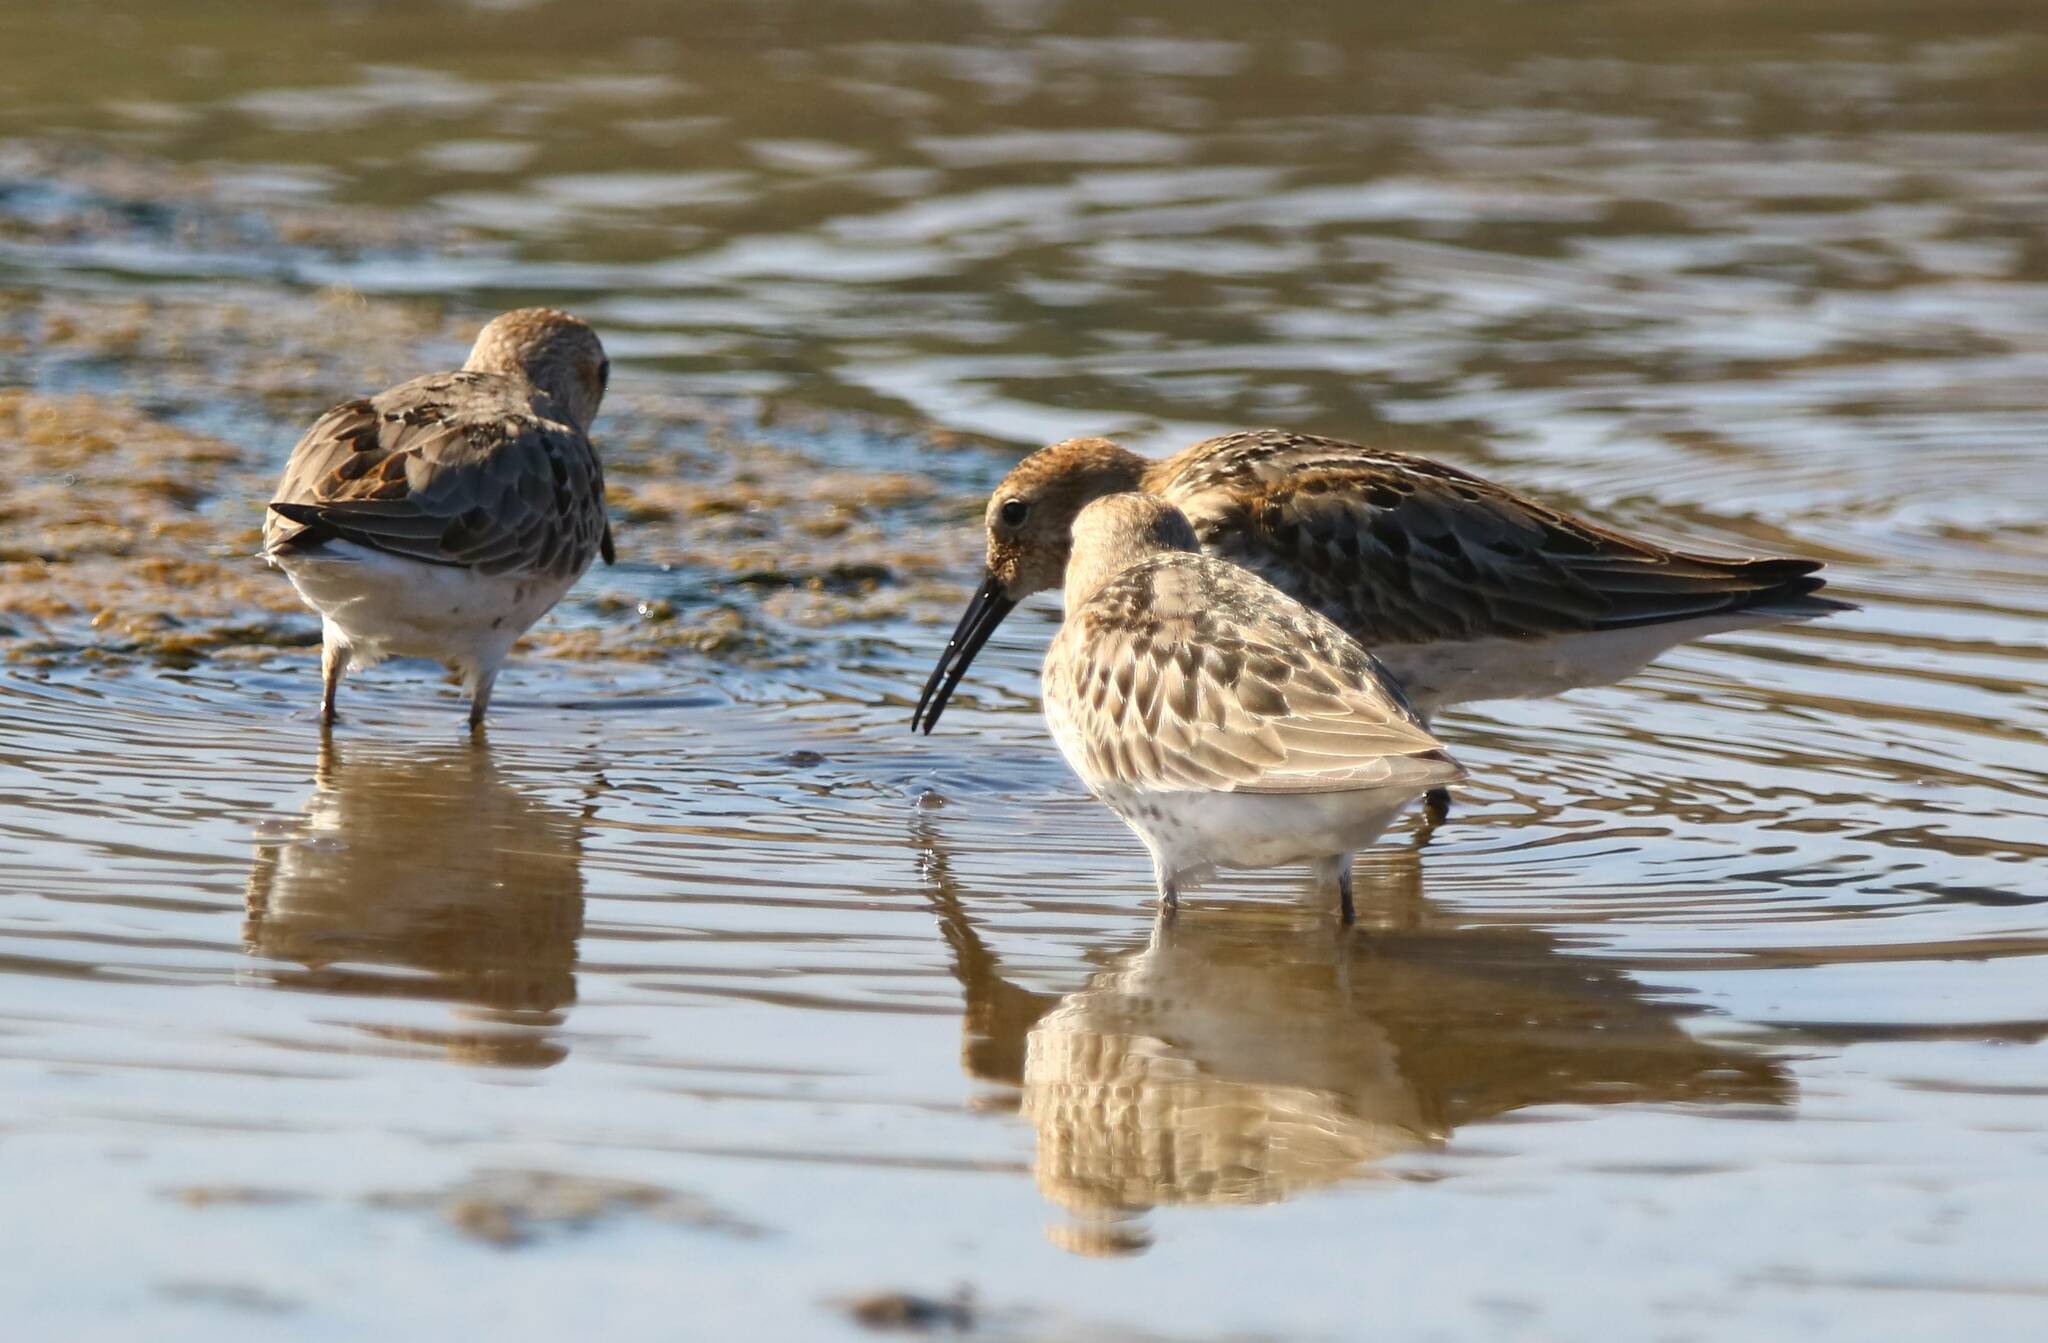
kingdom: Animalia
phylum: Chordata
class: Aves
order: Charadriiformes
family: Scolopacidae
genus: Calidris
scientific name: Calidris alpina
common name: Dunlin
